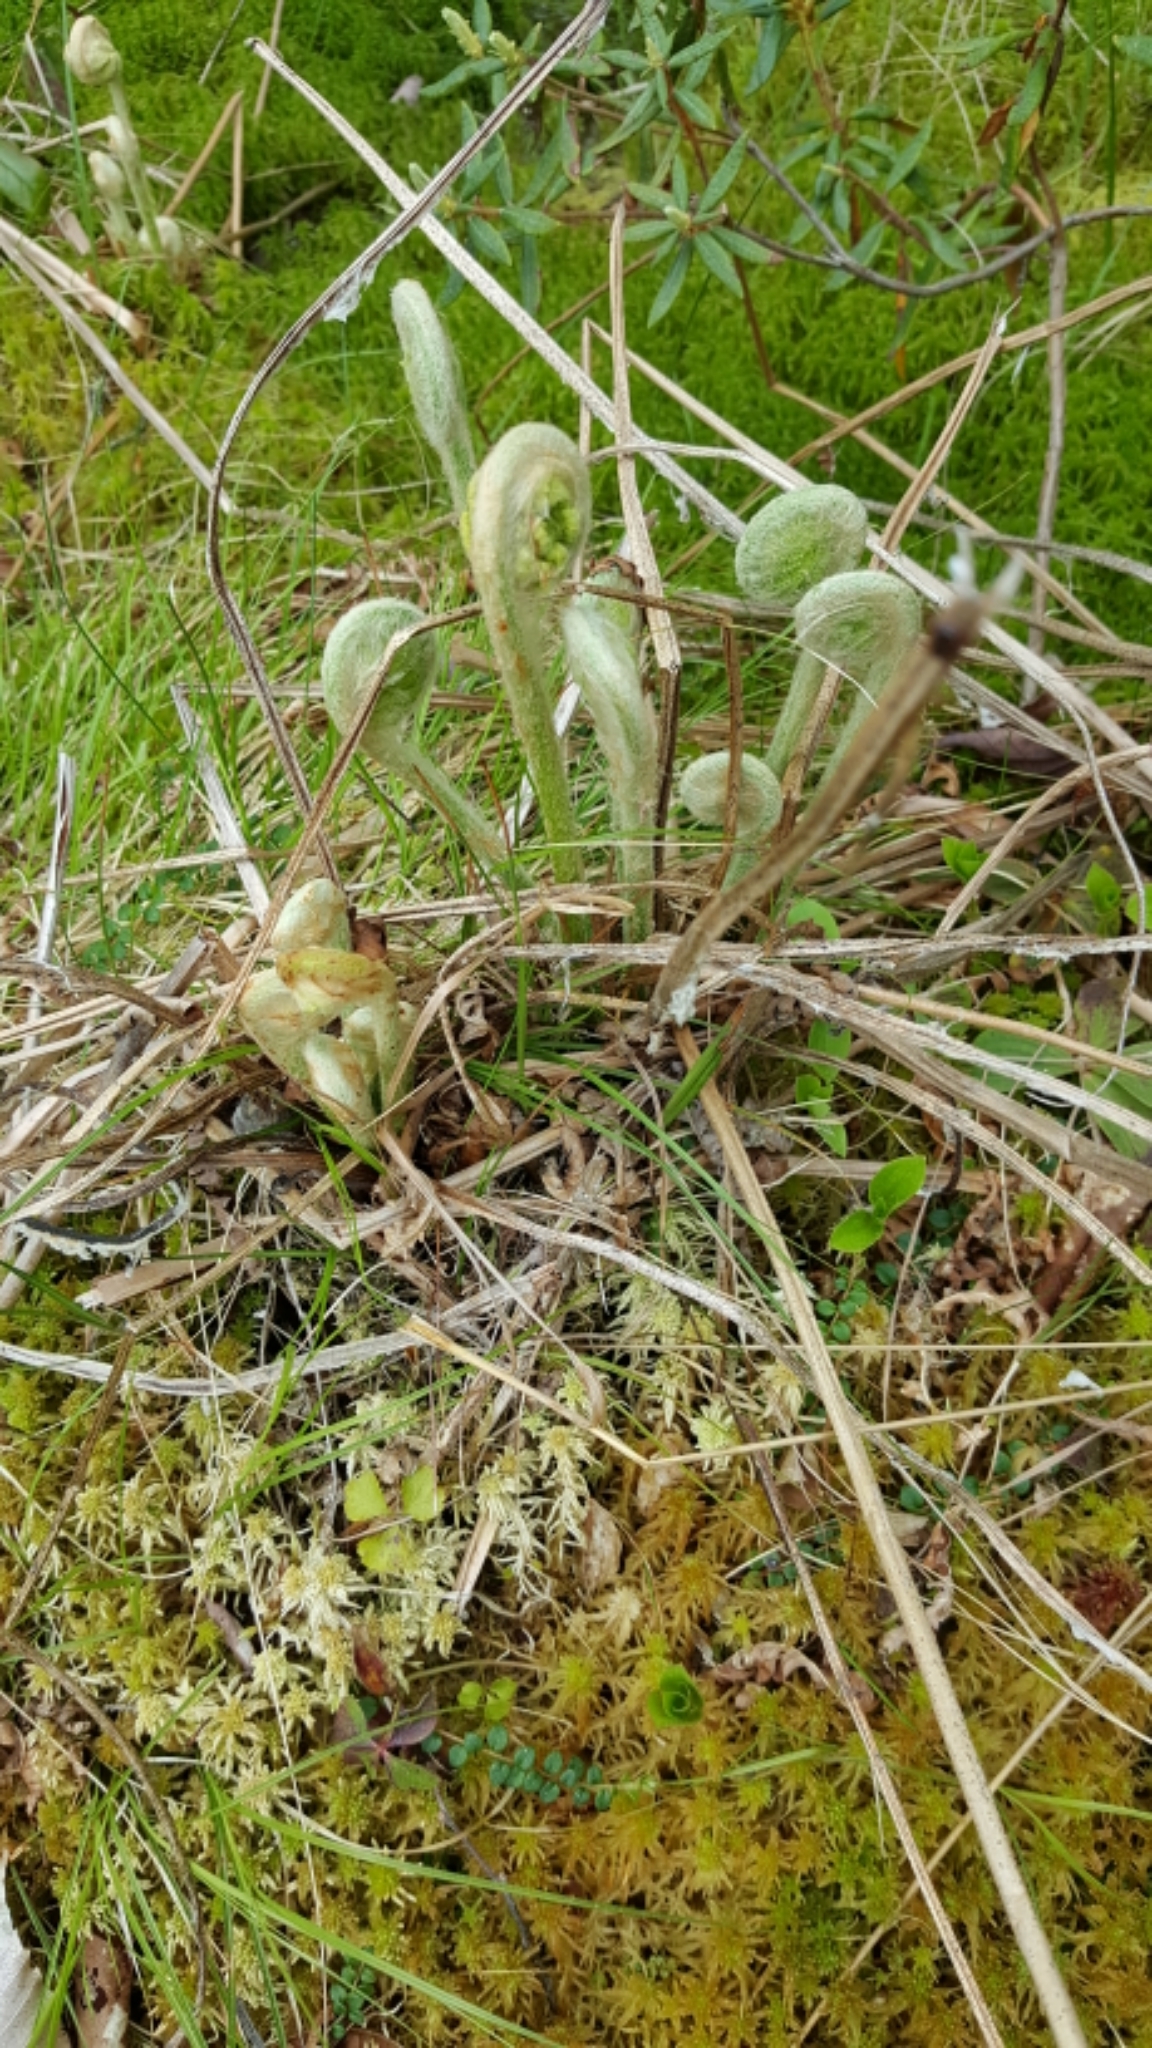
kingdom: Plantae
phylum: Tracheophyta
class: Polypodiopsida
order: Osmundales
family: Osmundaceae
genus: Osmundastrum
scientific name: Osmundastrum cinnamomeum
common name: Cinnamon fern
